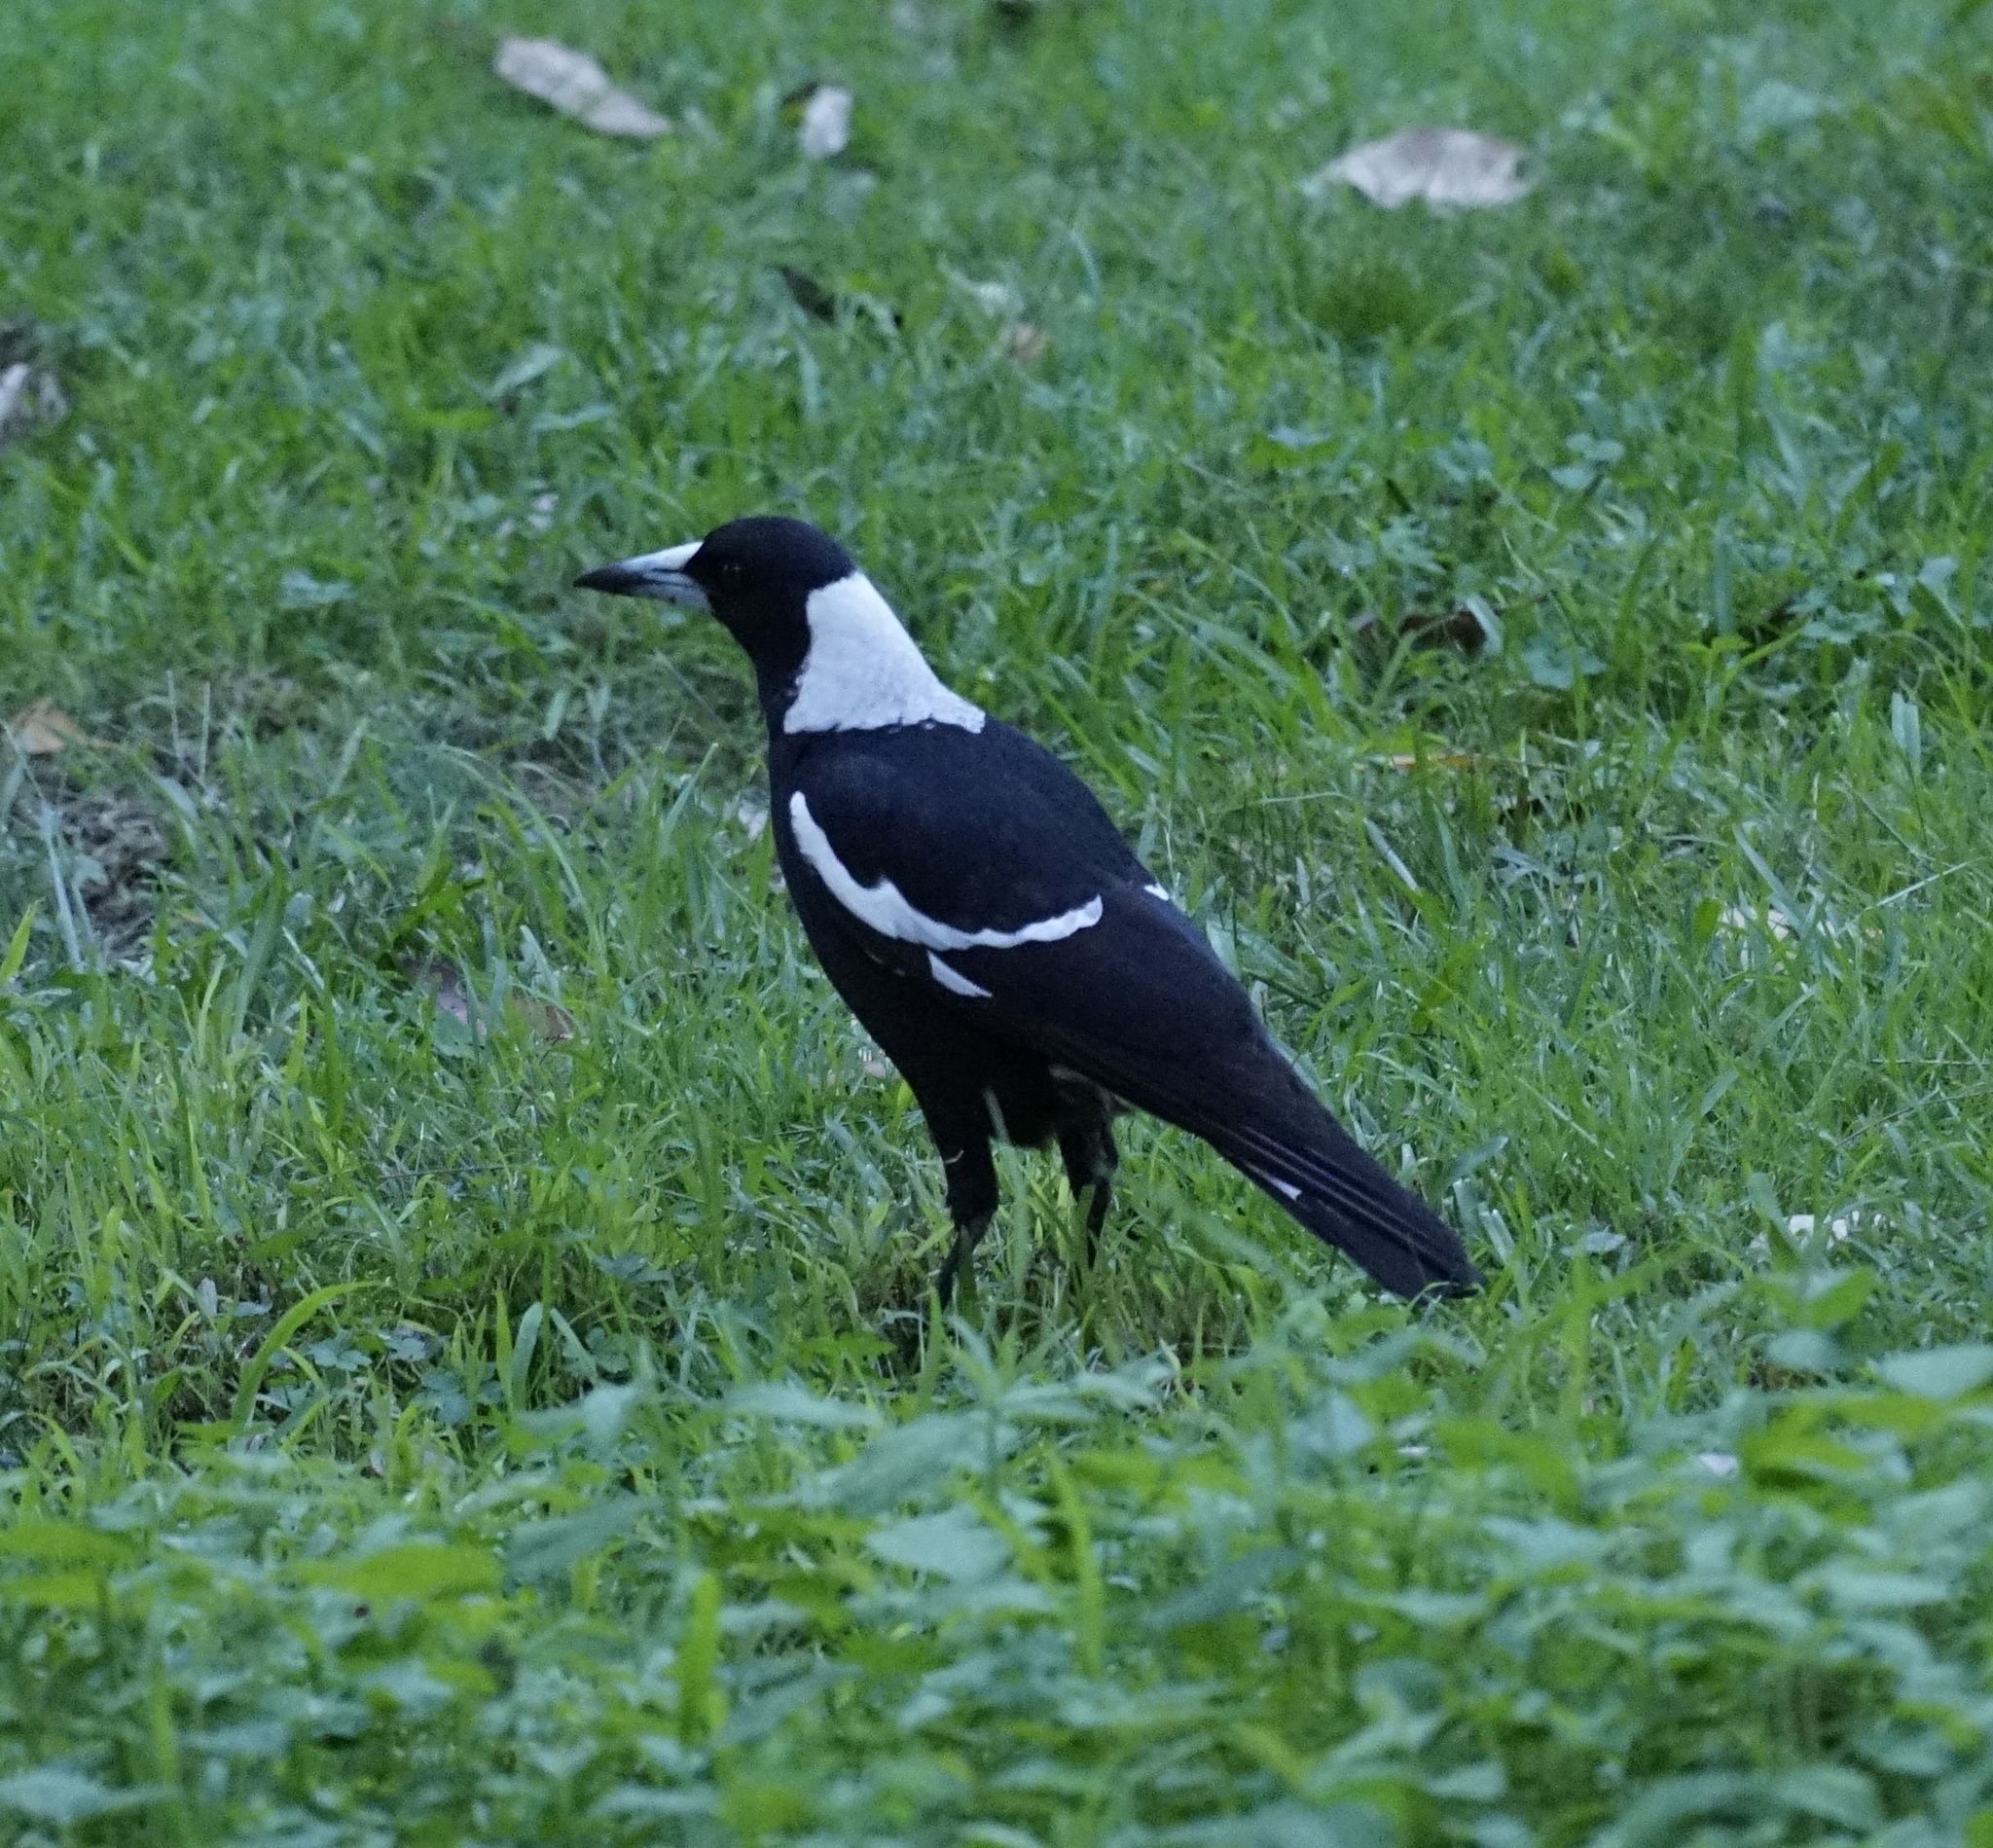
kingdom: Animalia
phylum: Chordata
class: Aves
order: Passeriformes
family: Cracticidae
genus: Gymnorhina
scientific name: Gymnorhina tibicen
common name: Australian magpie
